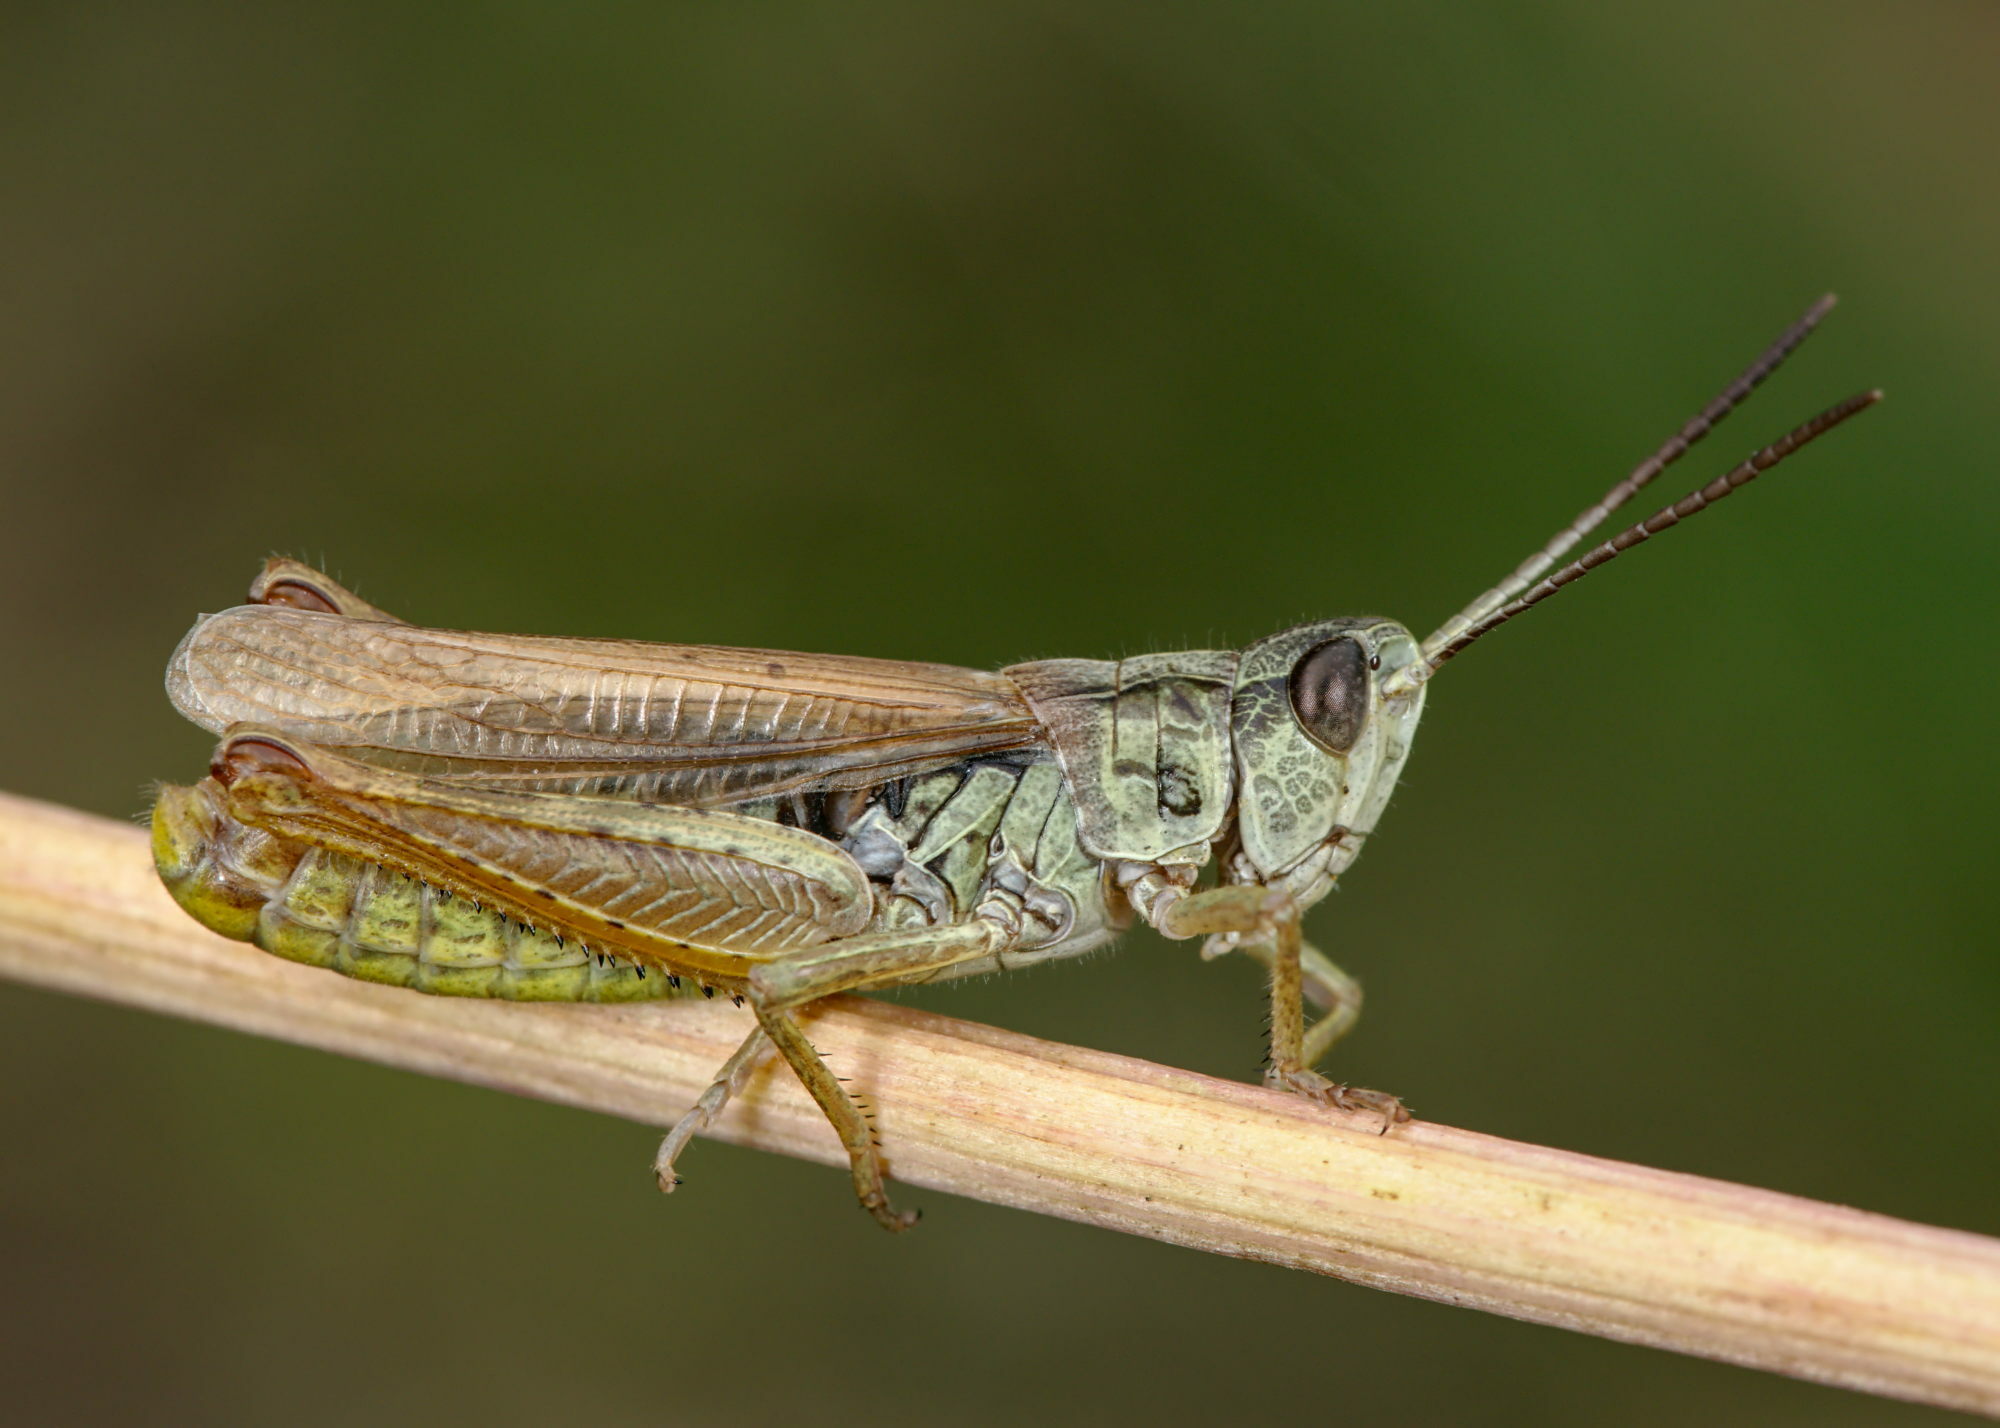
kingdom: Animalia
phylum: Arthropoda
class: Insecta
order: Orthoptera
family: Acrididae
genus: Chorthippus
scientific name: Chorthippus apricarius
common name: Upland field grasshopper
